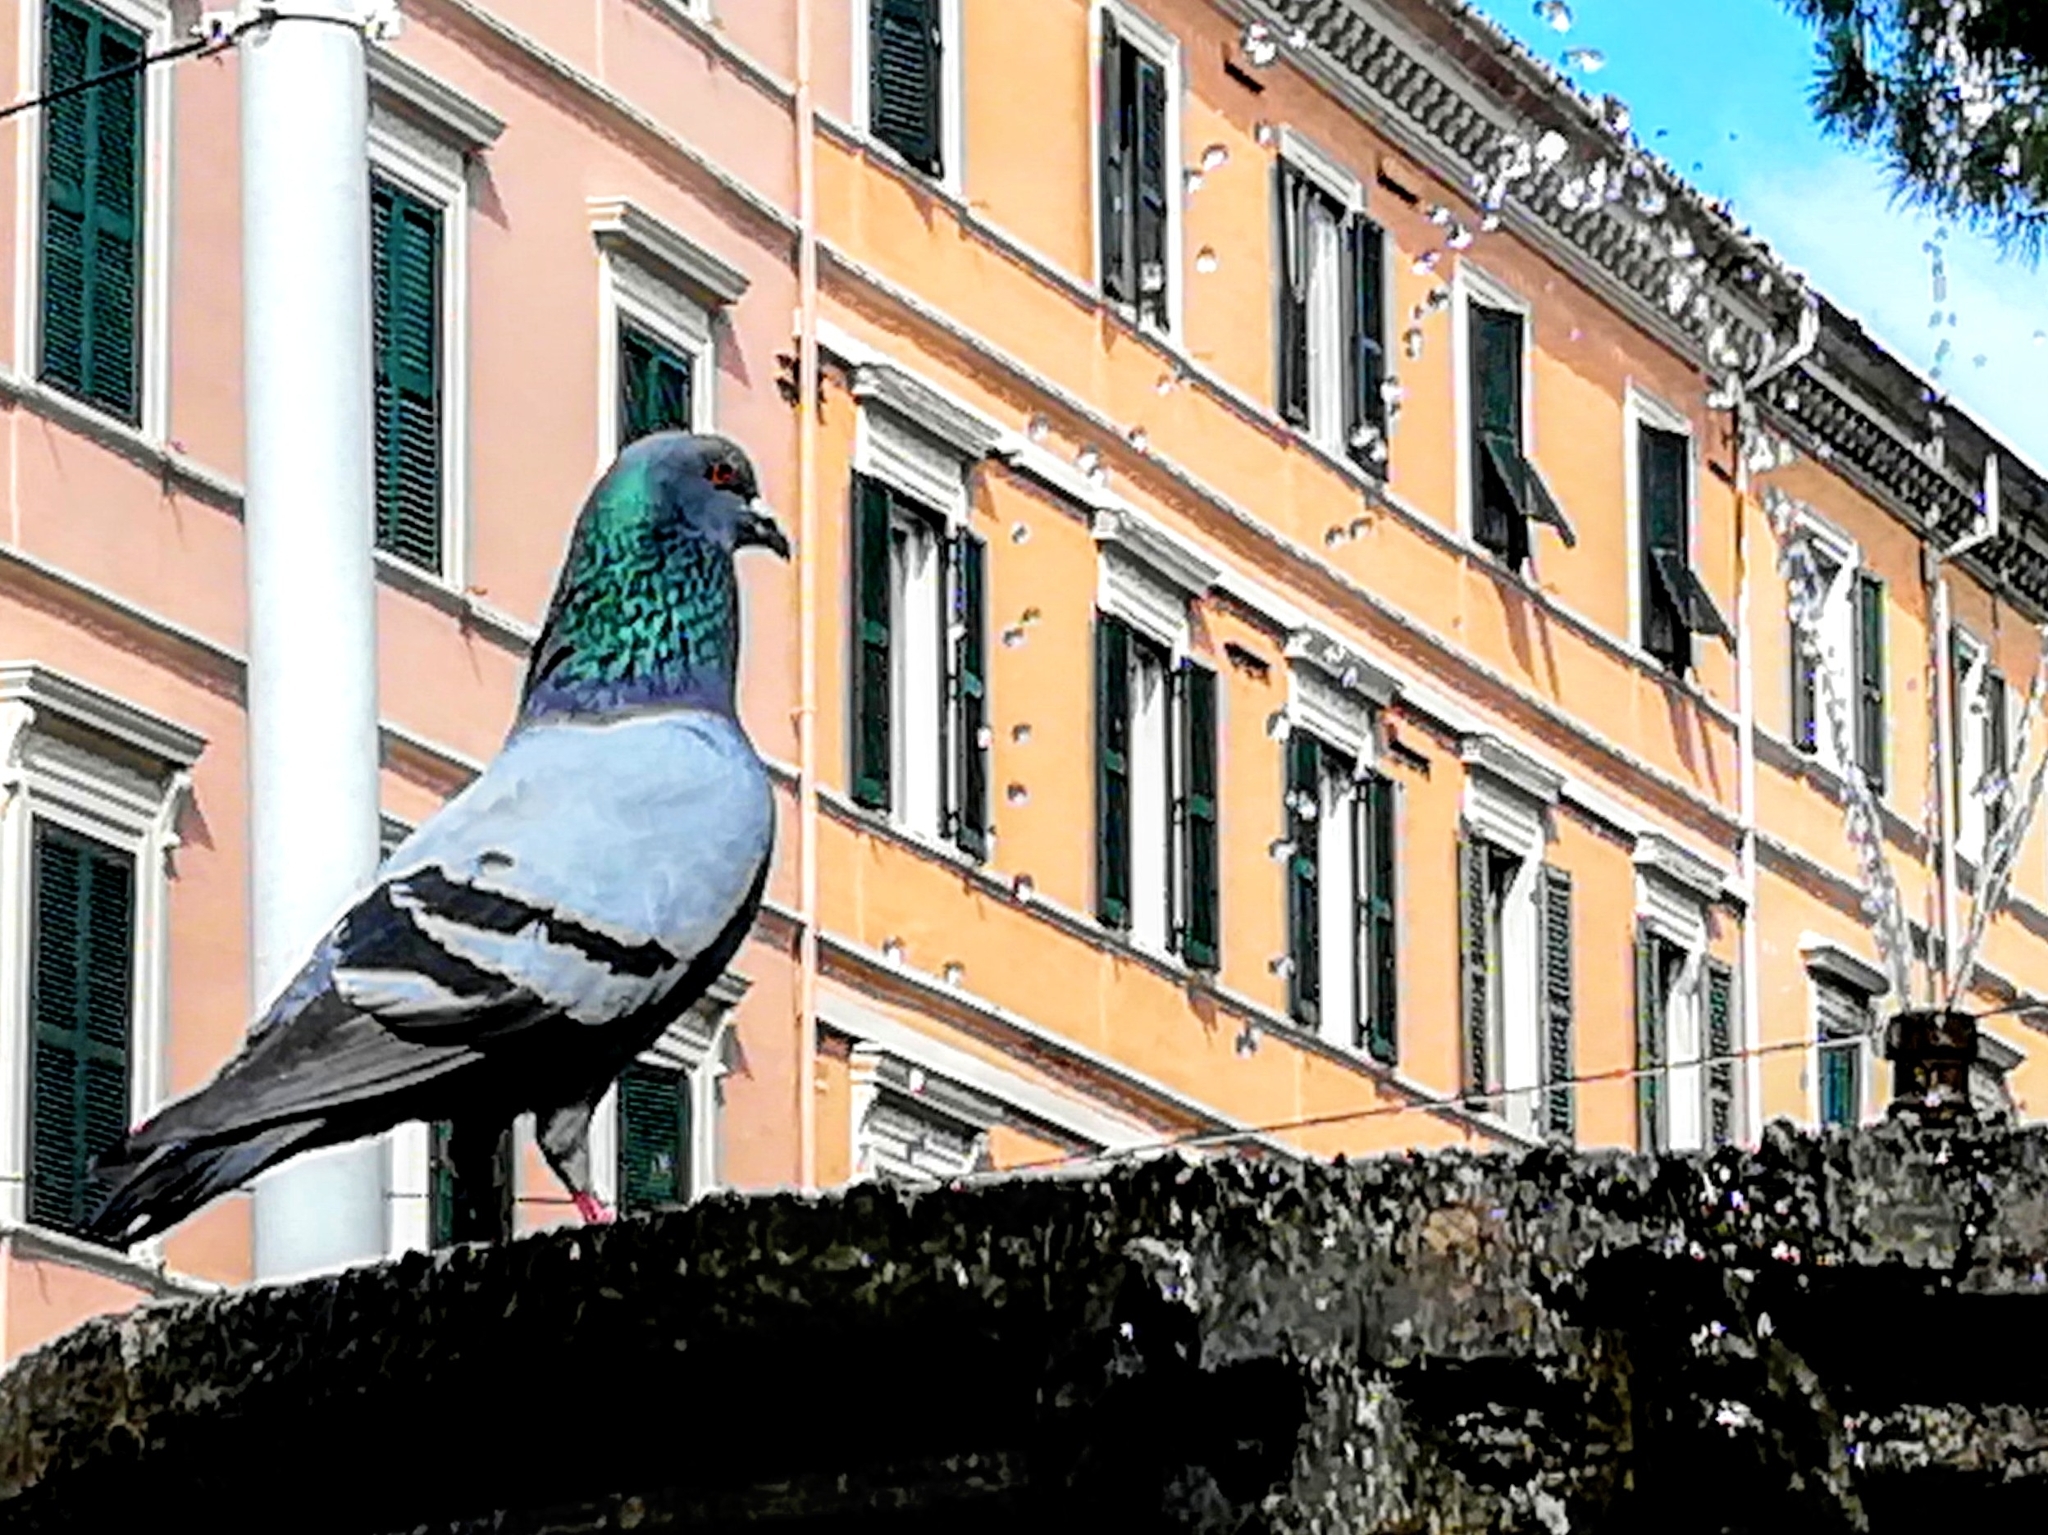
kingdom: Animalia
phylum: Chordata
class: Aves
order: Columbiformes
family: Columbidae
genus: Columba
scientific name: Columba livia
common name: Rock pigeon
